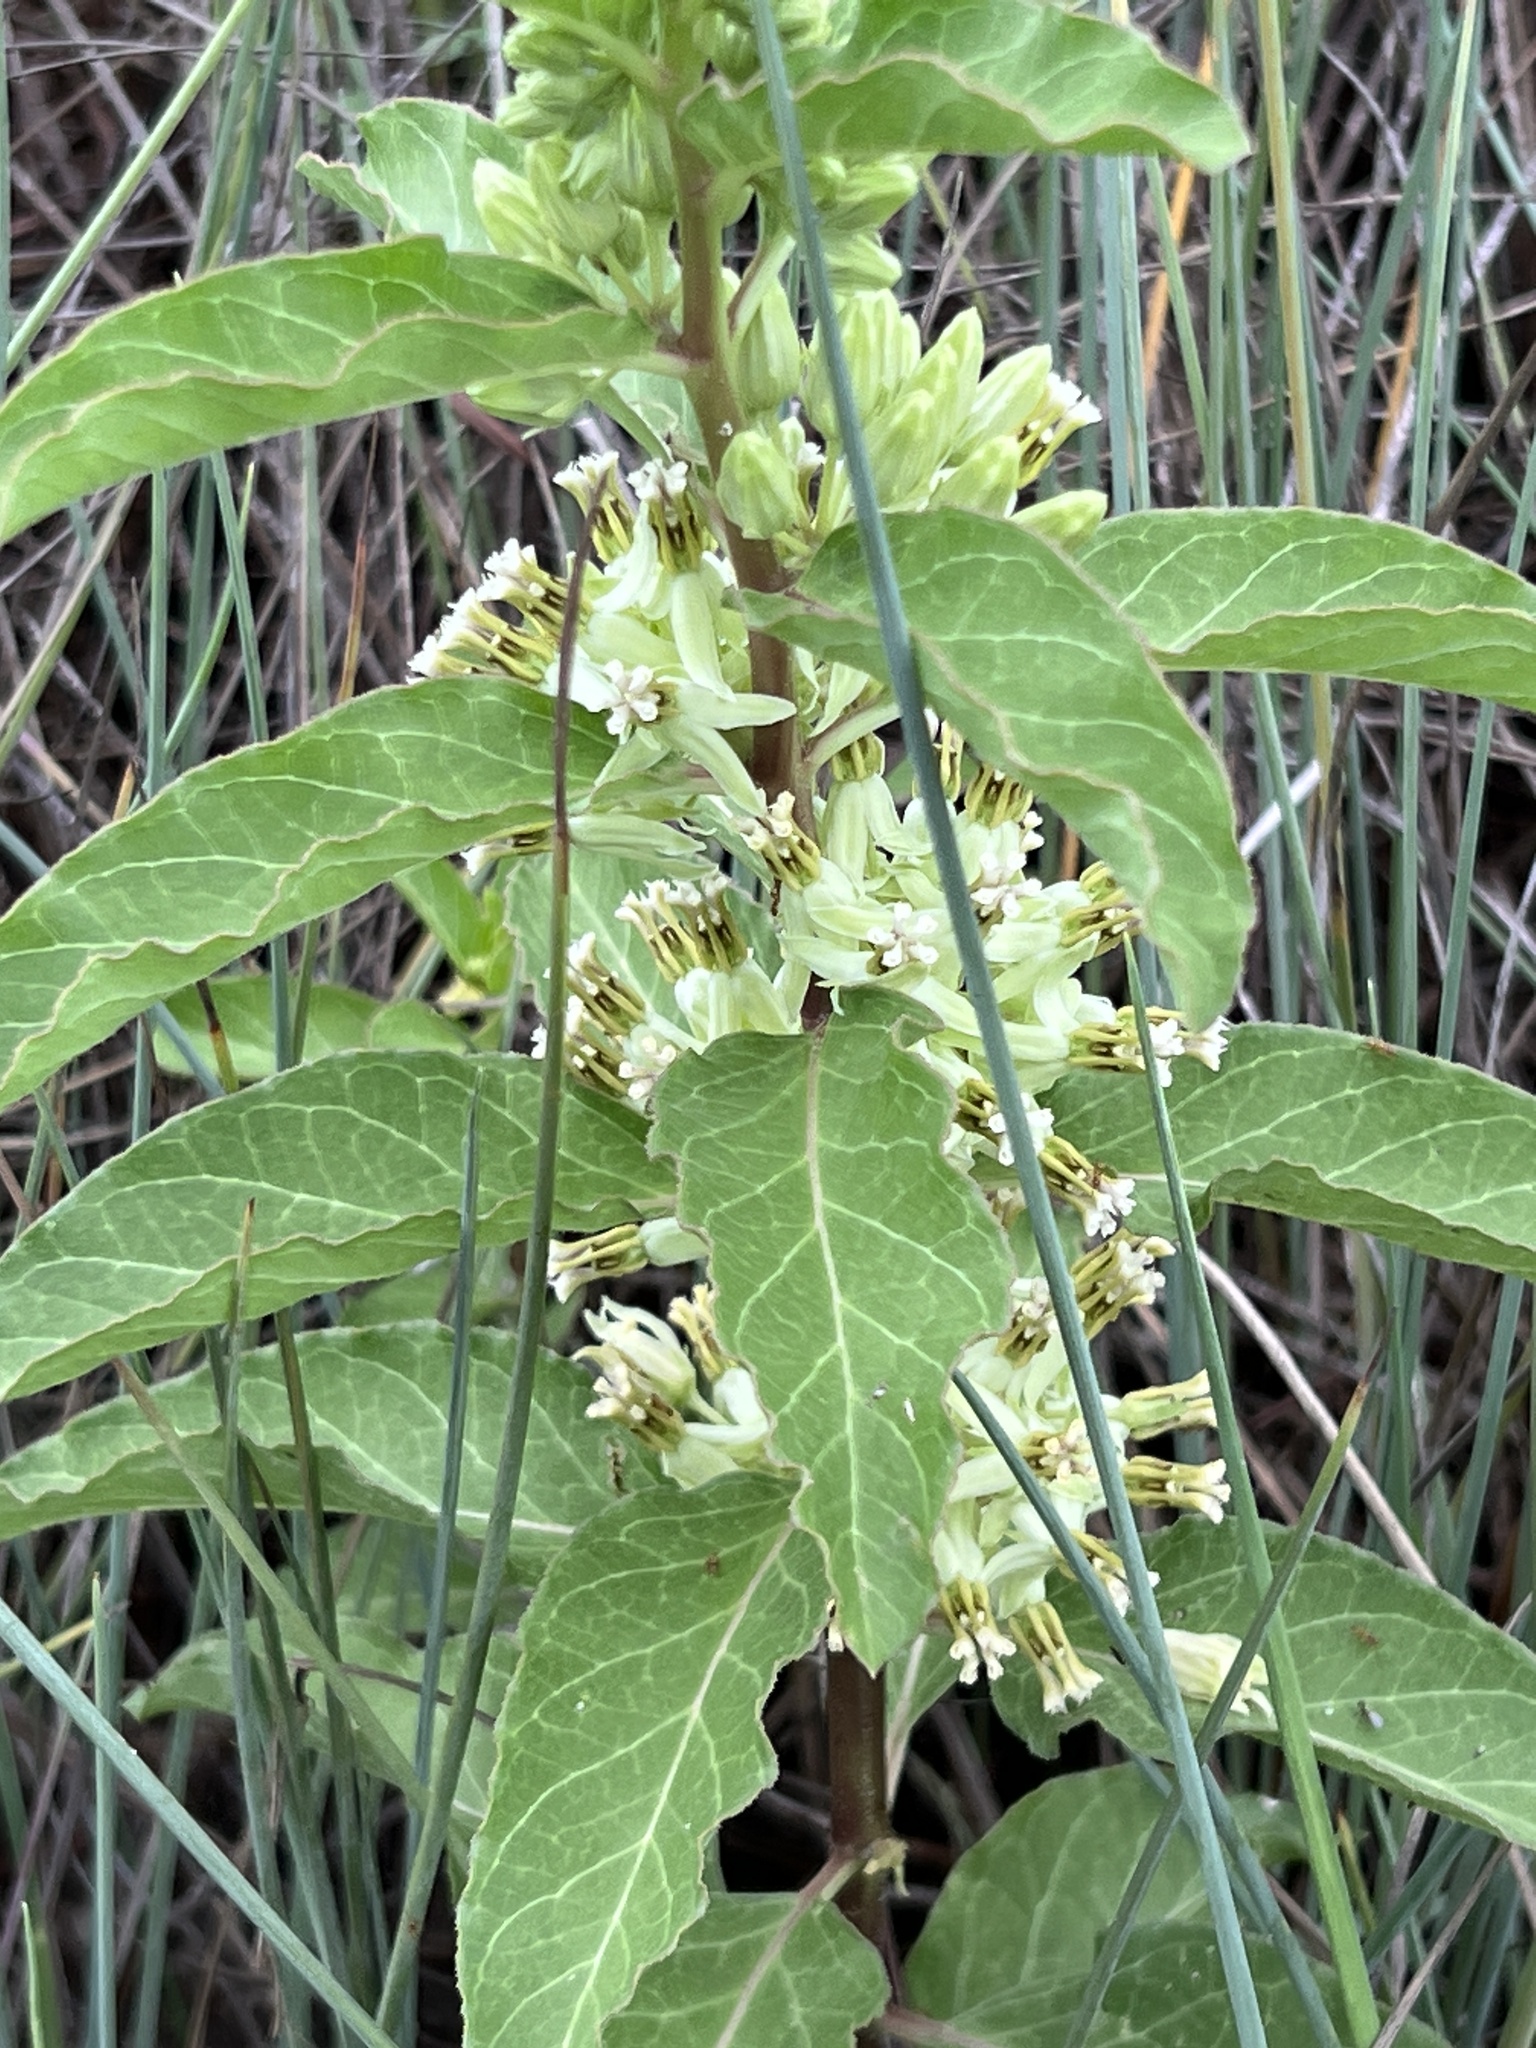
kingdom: Plantae
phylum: Tracheophyta
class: Magnoliopsida
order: Gentianales
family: Apocynaceae
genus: Asclepias
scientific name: Asclepias oenotheroides
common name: Zizotes milkweed
